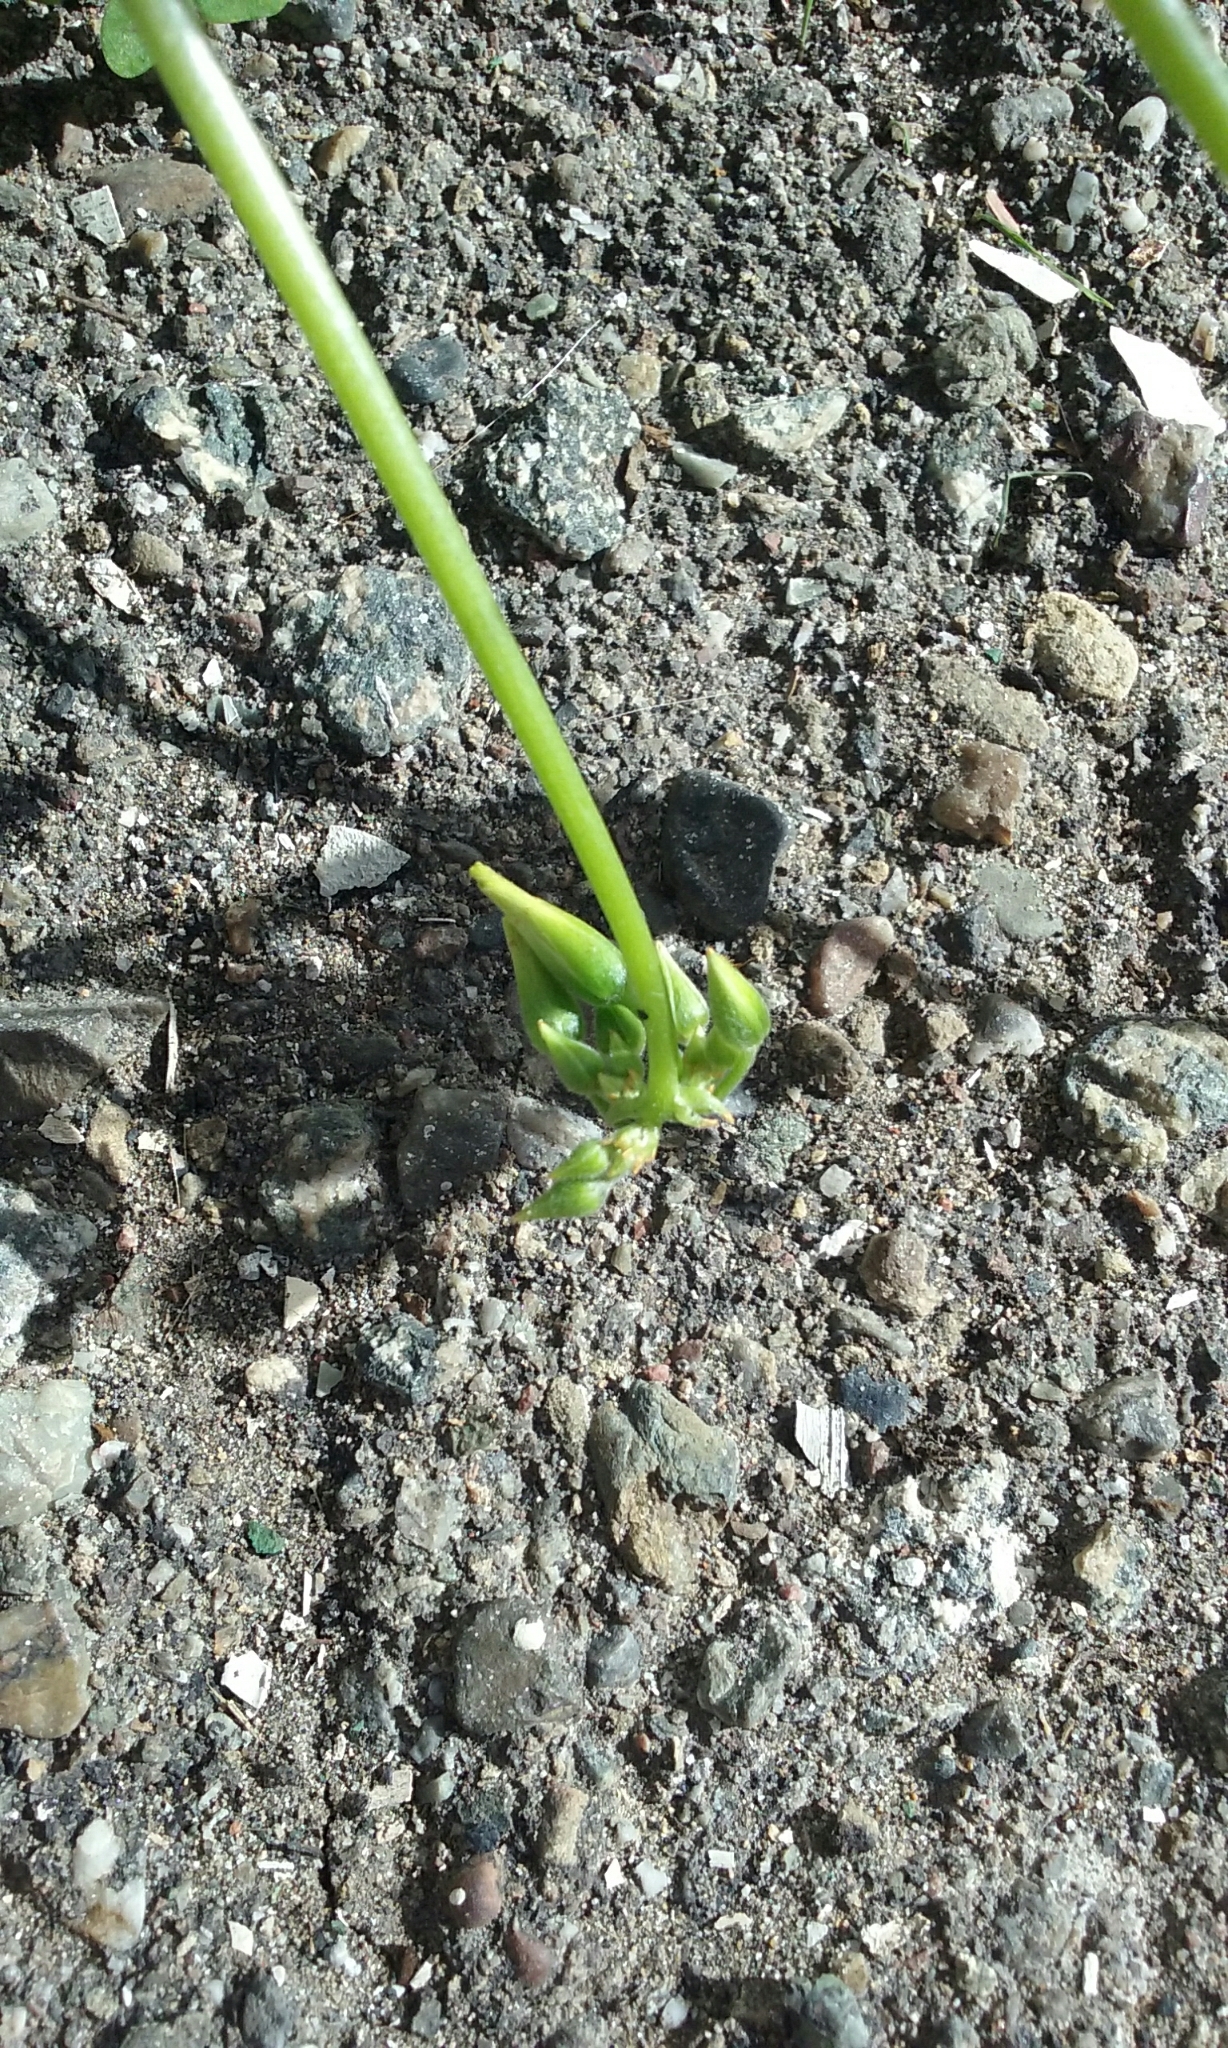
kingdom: Plantae
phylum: Tracheophyta
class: Magnoliopsida
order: Oxalidales
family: Oxalidaceae
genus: Oxalis
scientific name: Oxalis pes-caprae
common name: Bermuda-buttercup
